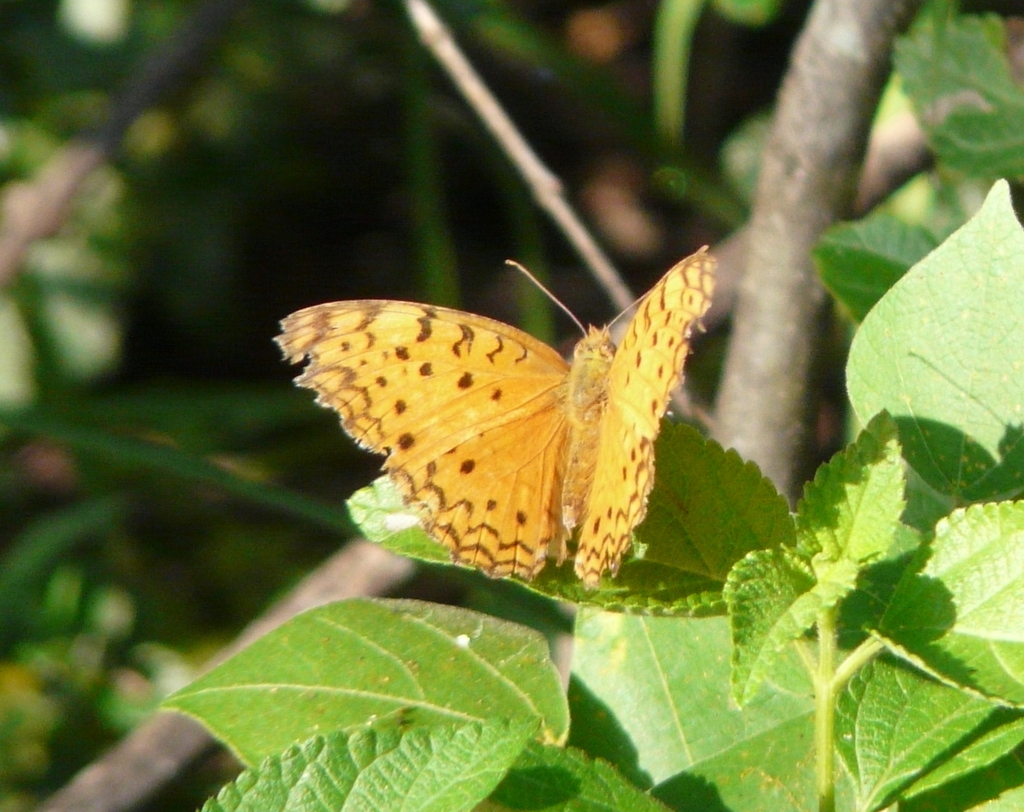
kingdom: Animalia
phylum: Arthropoda
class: Insecta
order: Lepidoptera
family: Nymphalidae
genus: Phalanta
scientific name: Phalanta phalantha
